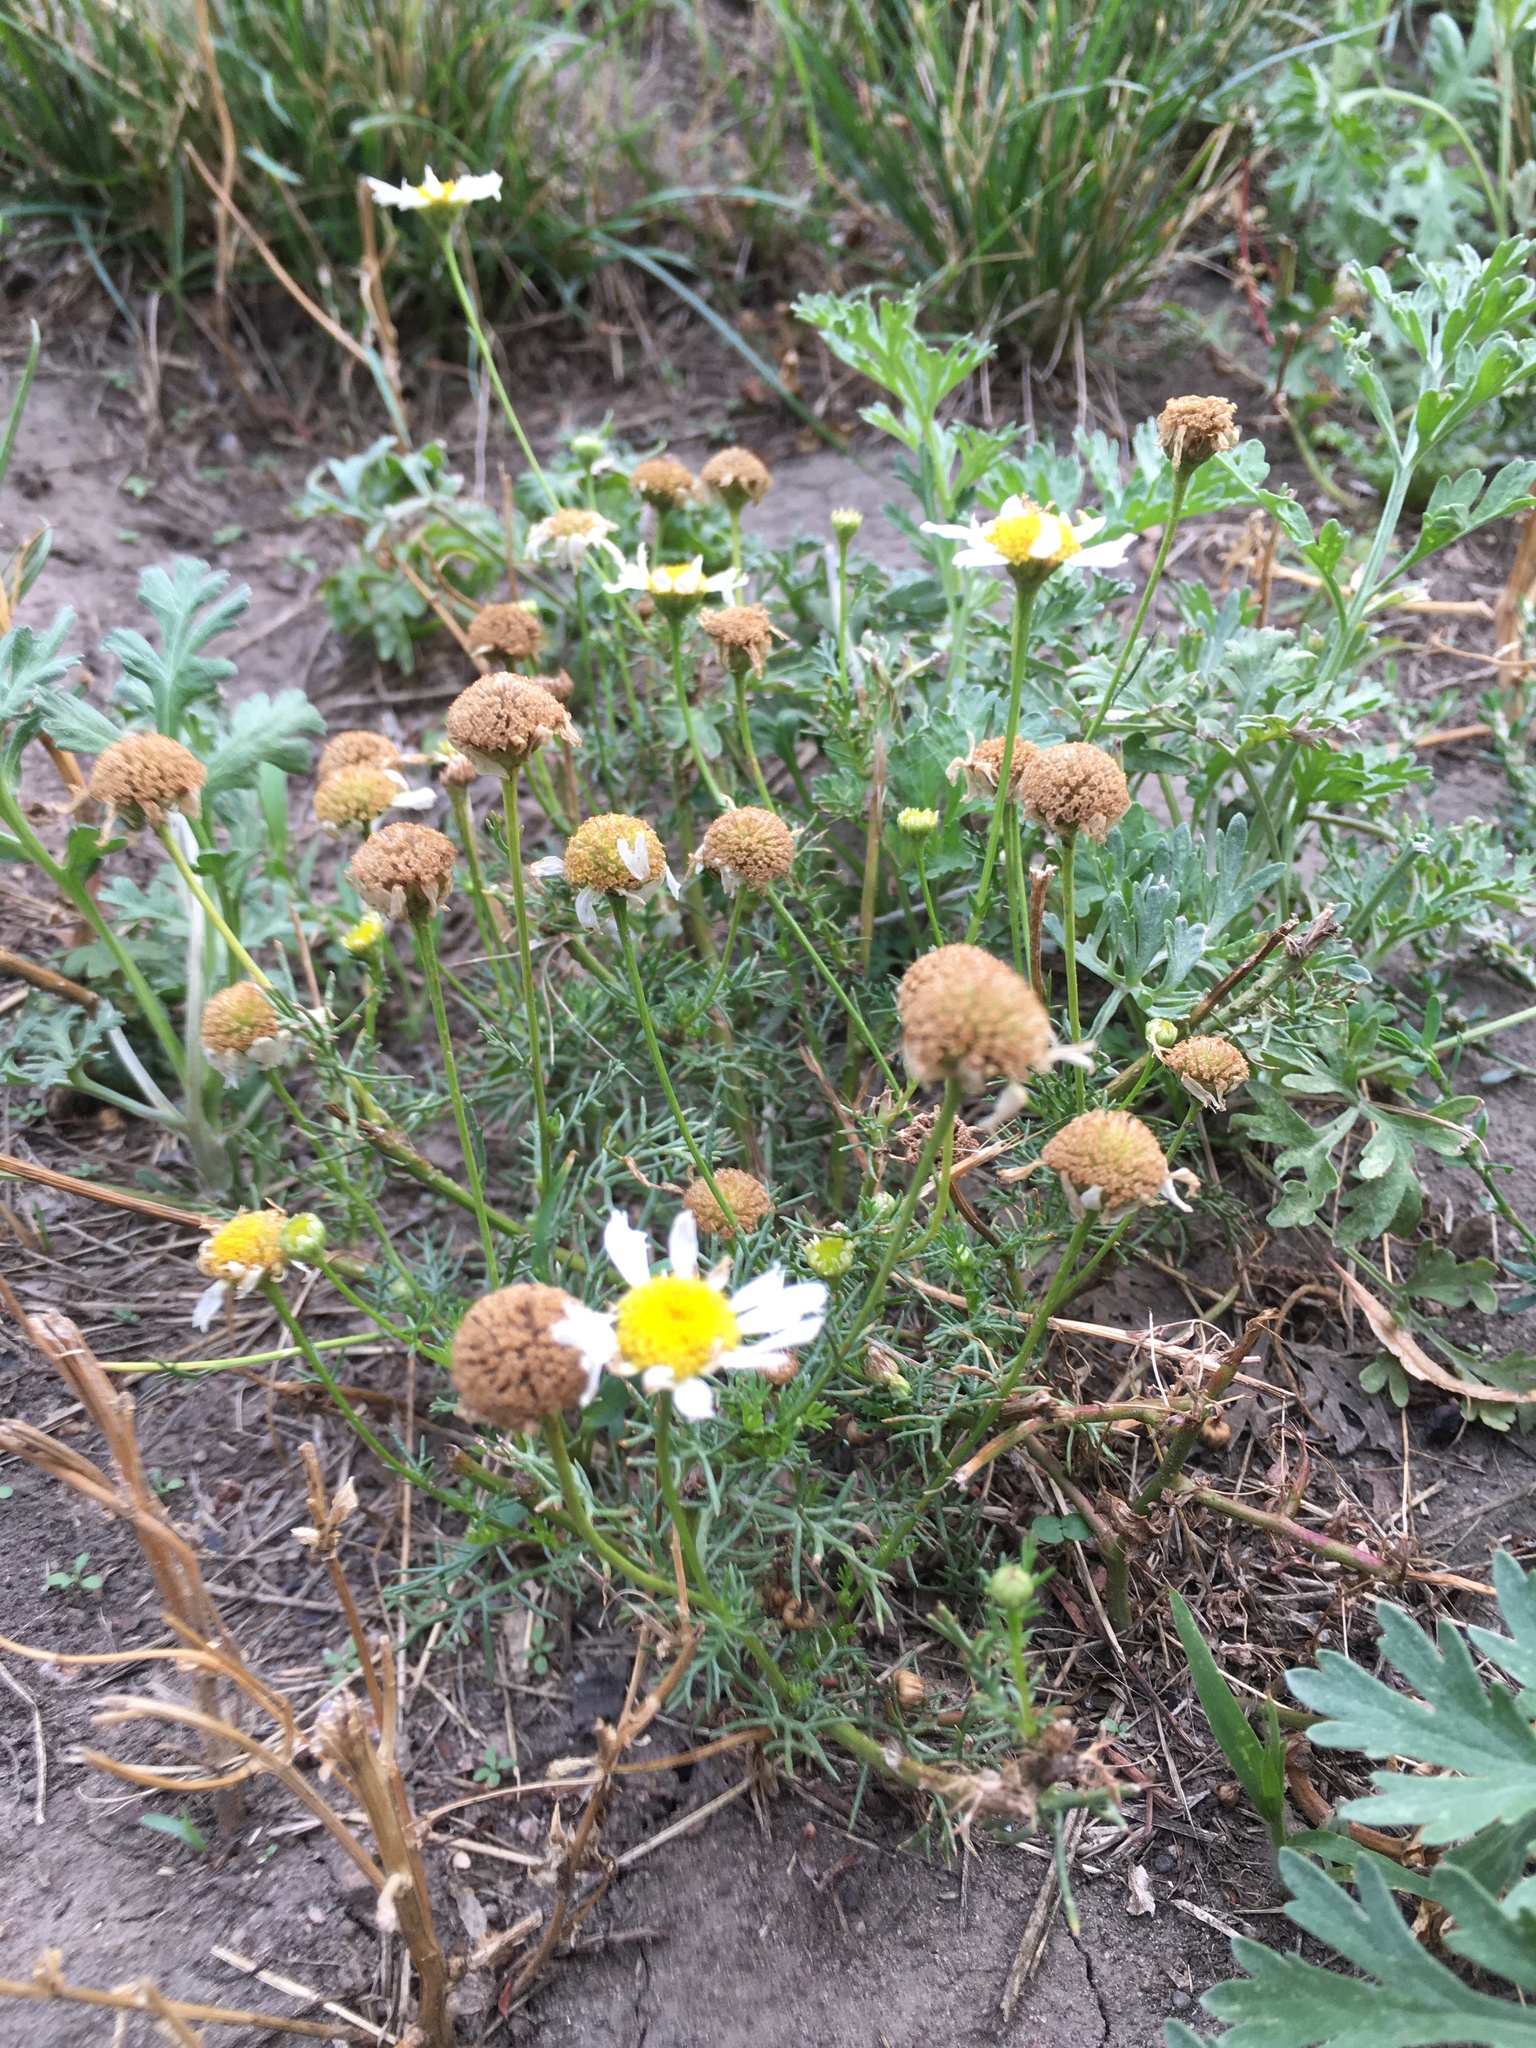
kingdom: Plantae
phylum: Tracheophyta
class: Magnoliopsida
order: Asterales
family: Asteraceae
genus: Tripleurospermum
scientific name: Tripleurospermum inodorum
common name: Scentless mayweed
